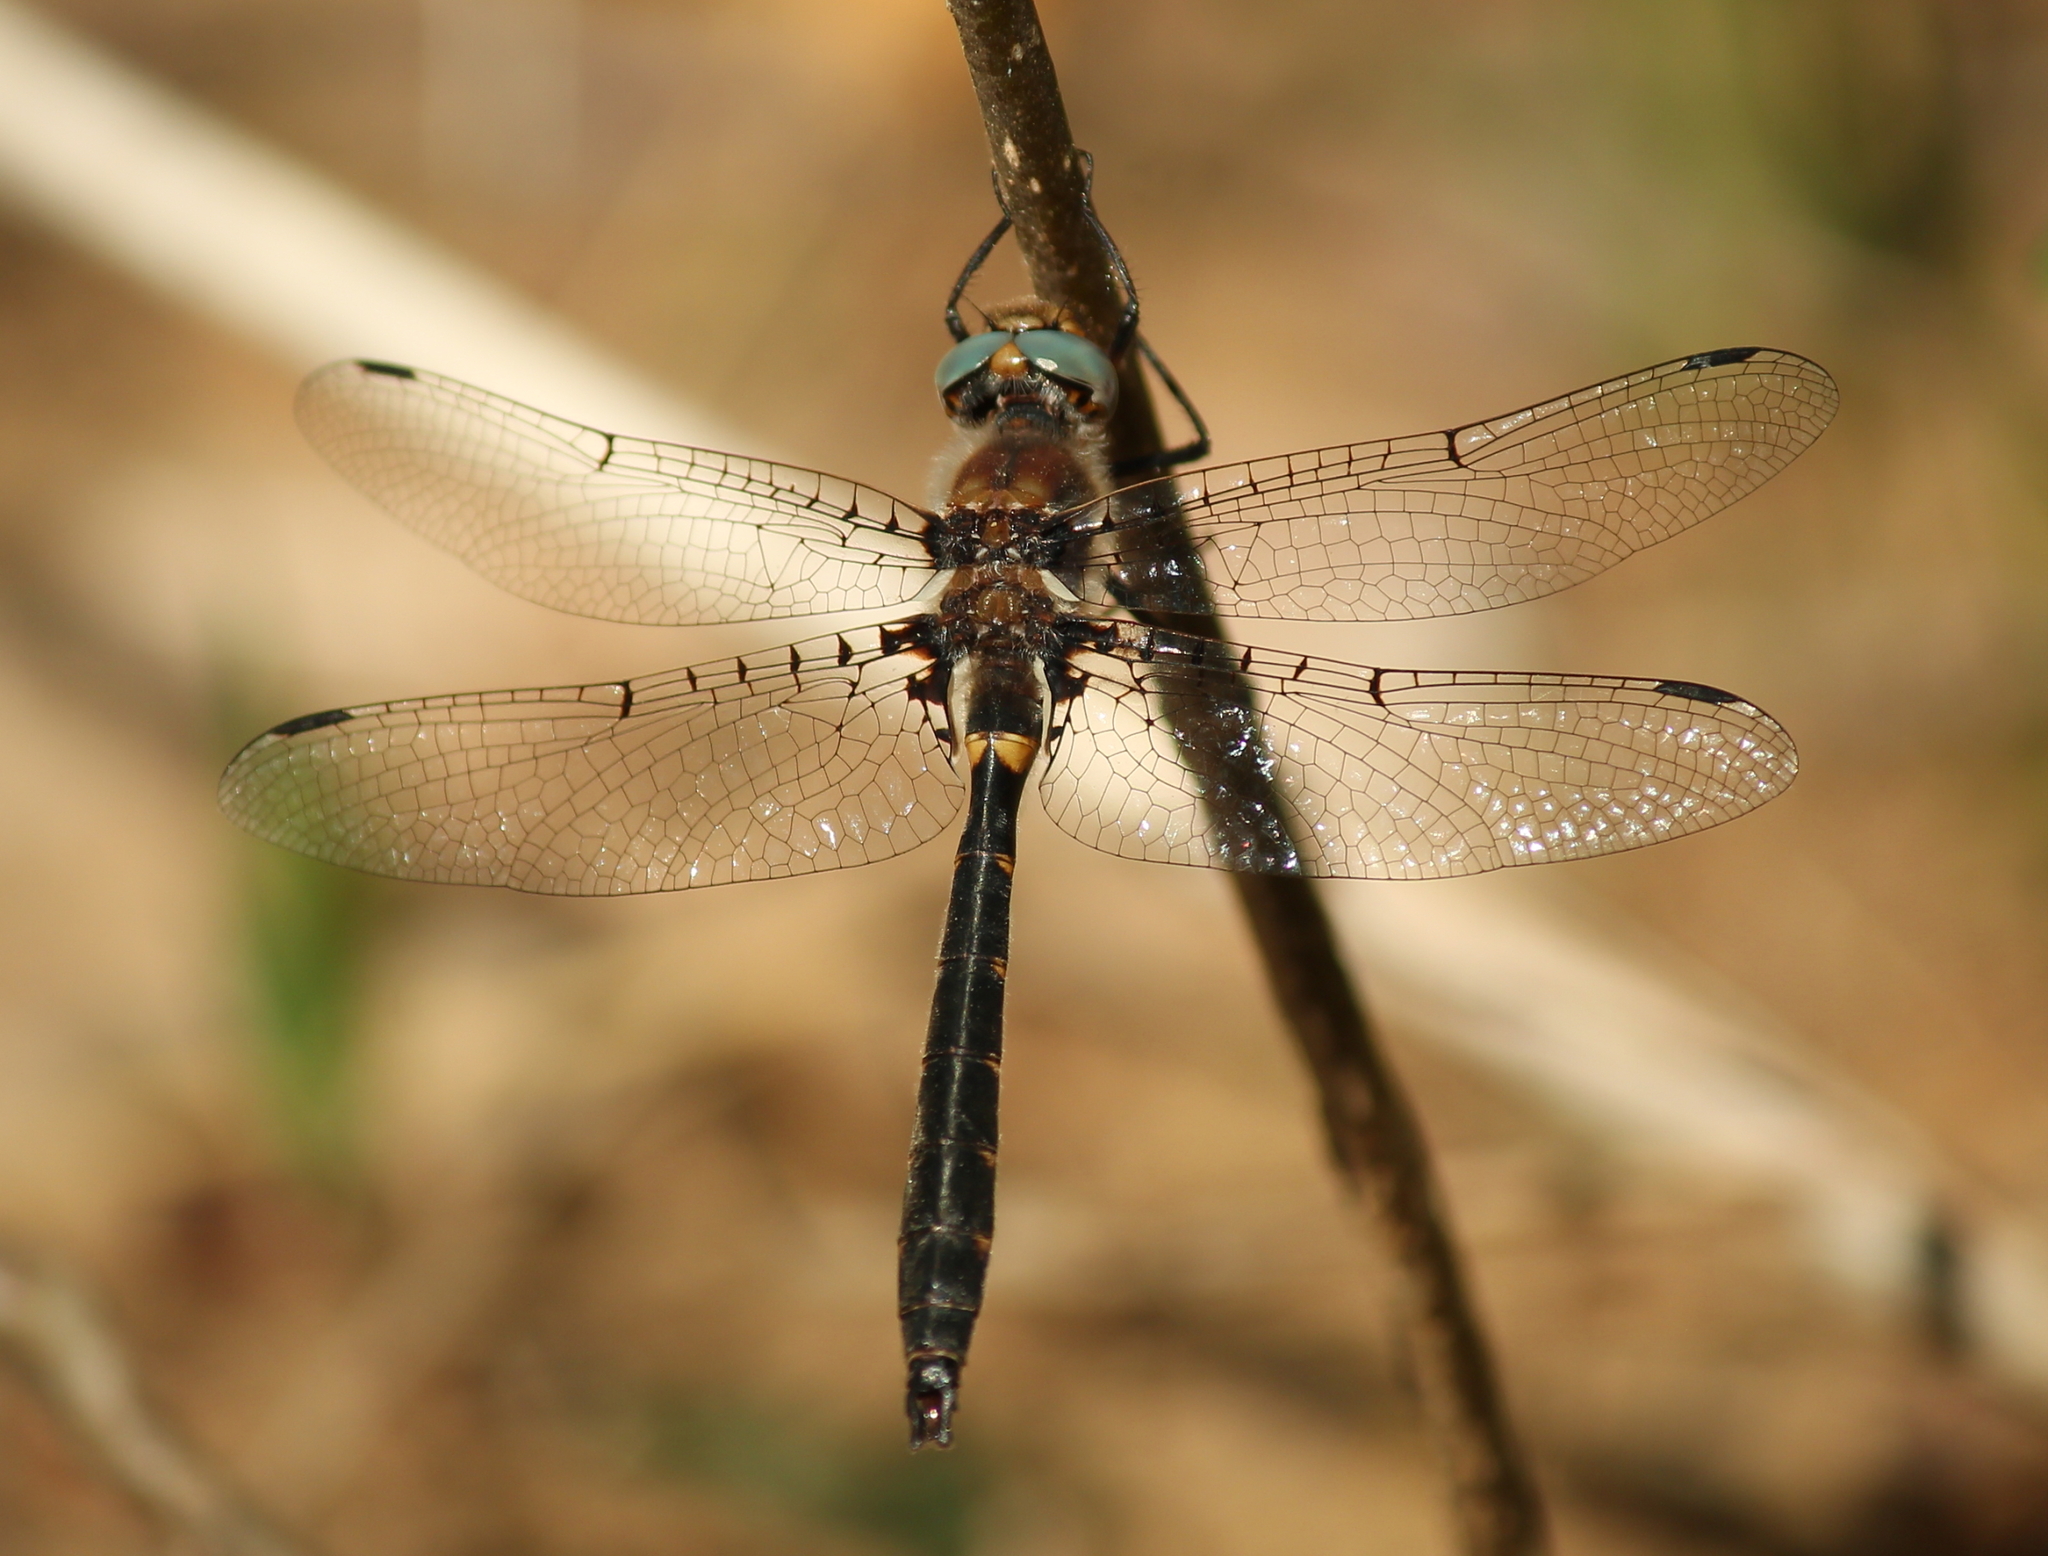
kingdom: Animalia
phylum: Arthropoda
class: Insecta
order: Odonata
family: Corduliidae
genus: Helocordulia
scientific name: Helocordulia selysii
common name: Selys's sundragon
